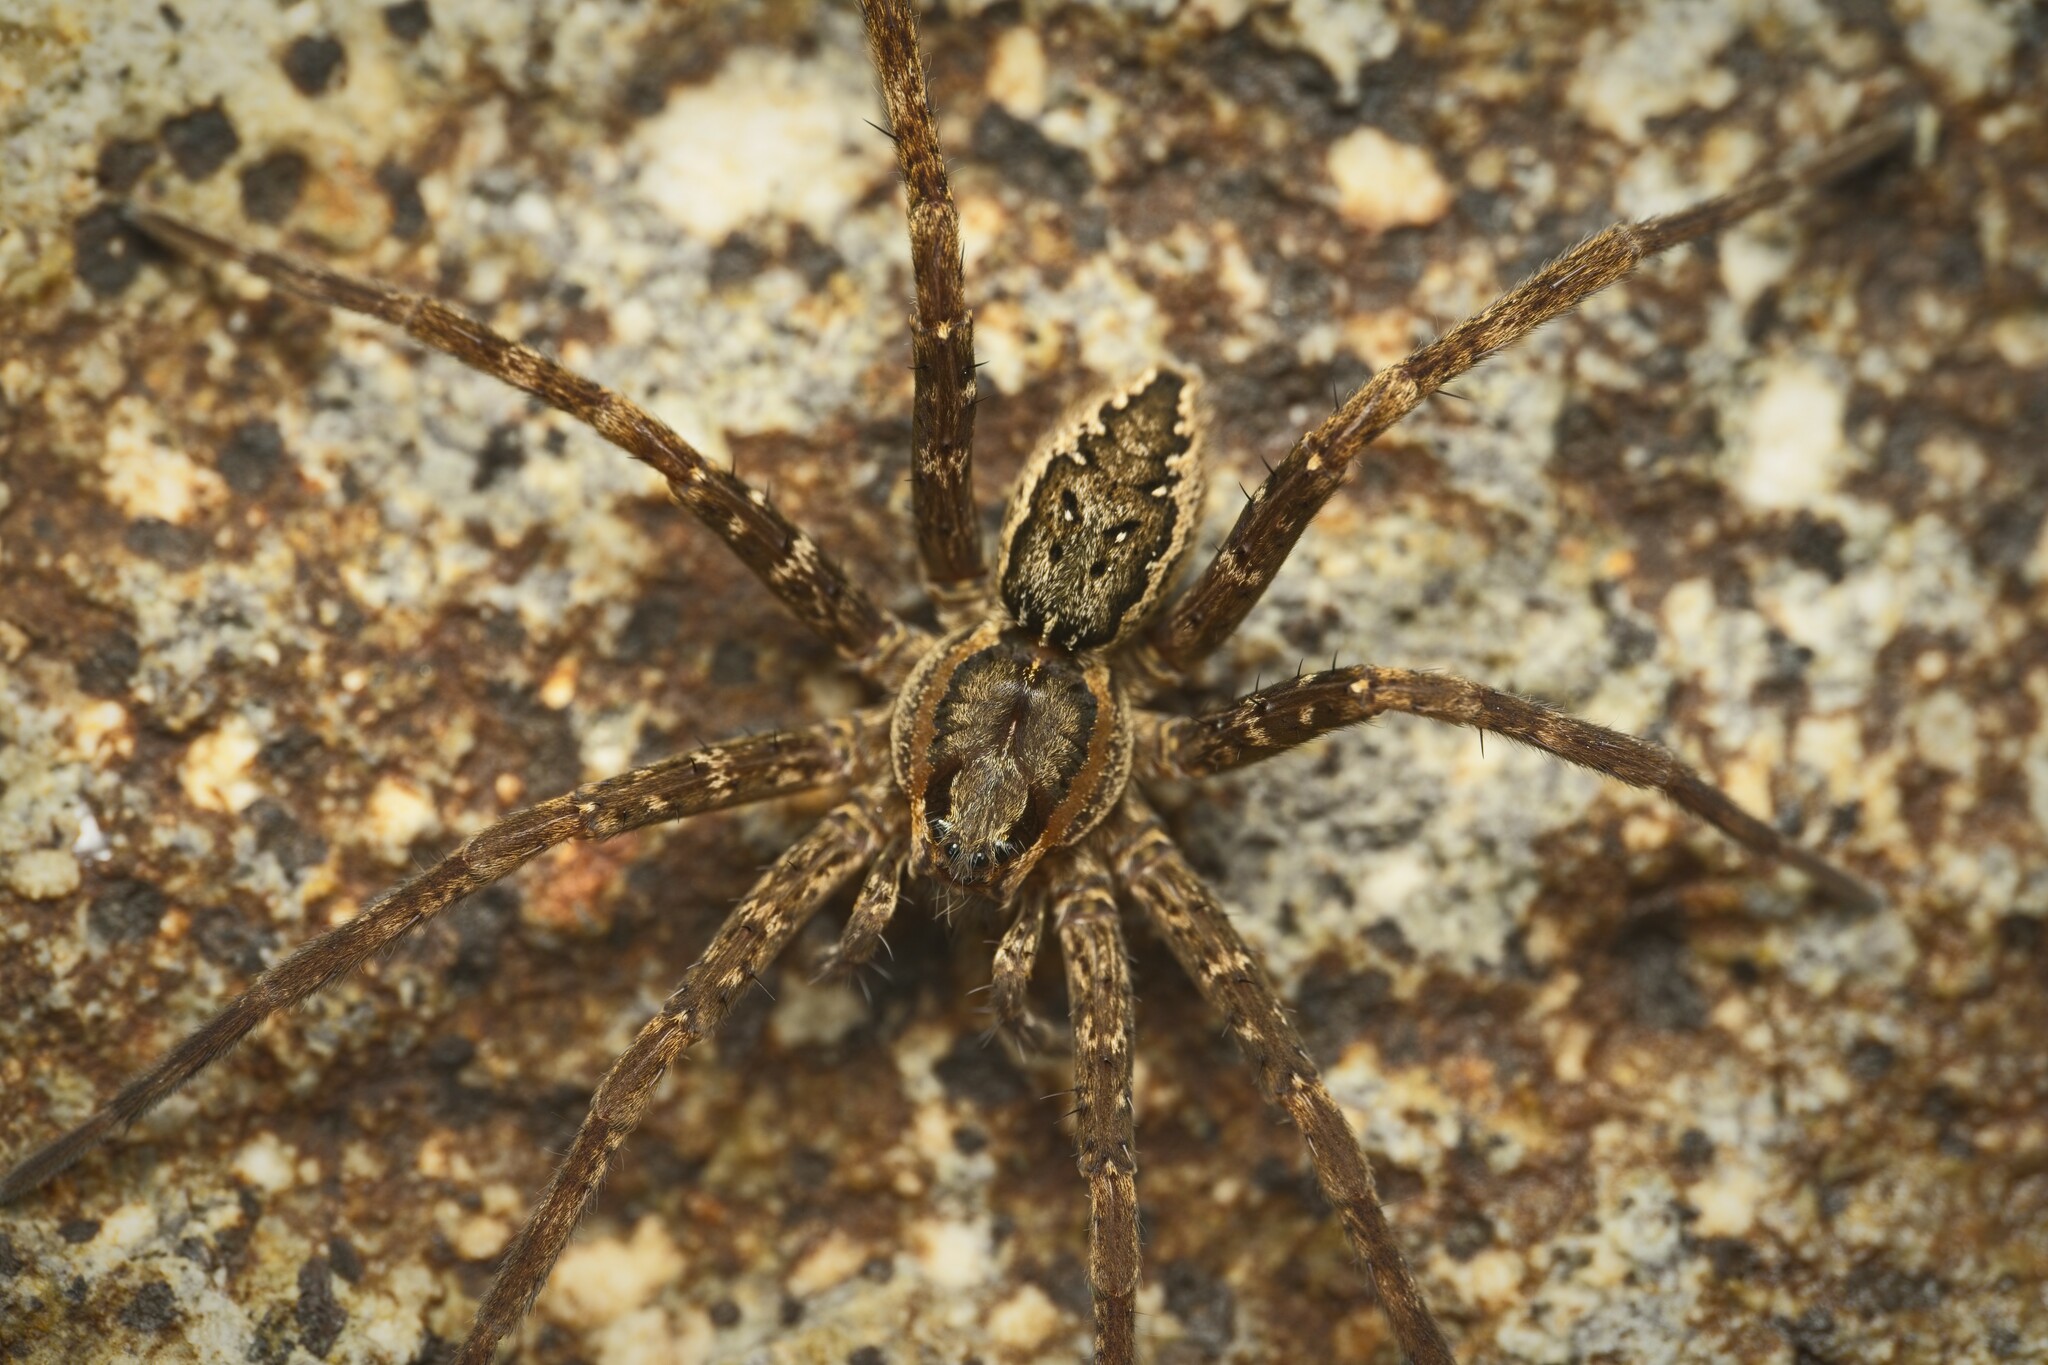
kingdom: Animalia
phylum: Arthropoda
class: Arachnida
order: Araneae
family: Pisauridae
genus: Dolomedes
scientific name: Dolomedes dondalei
